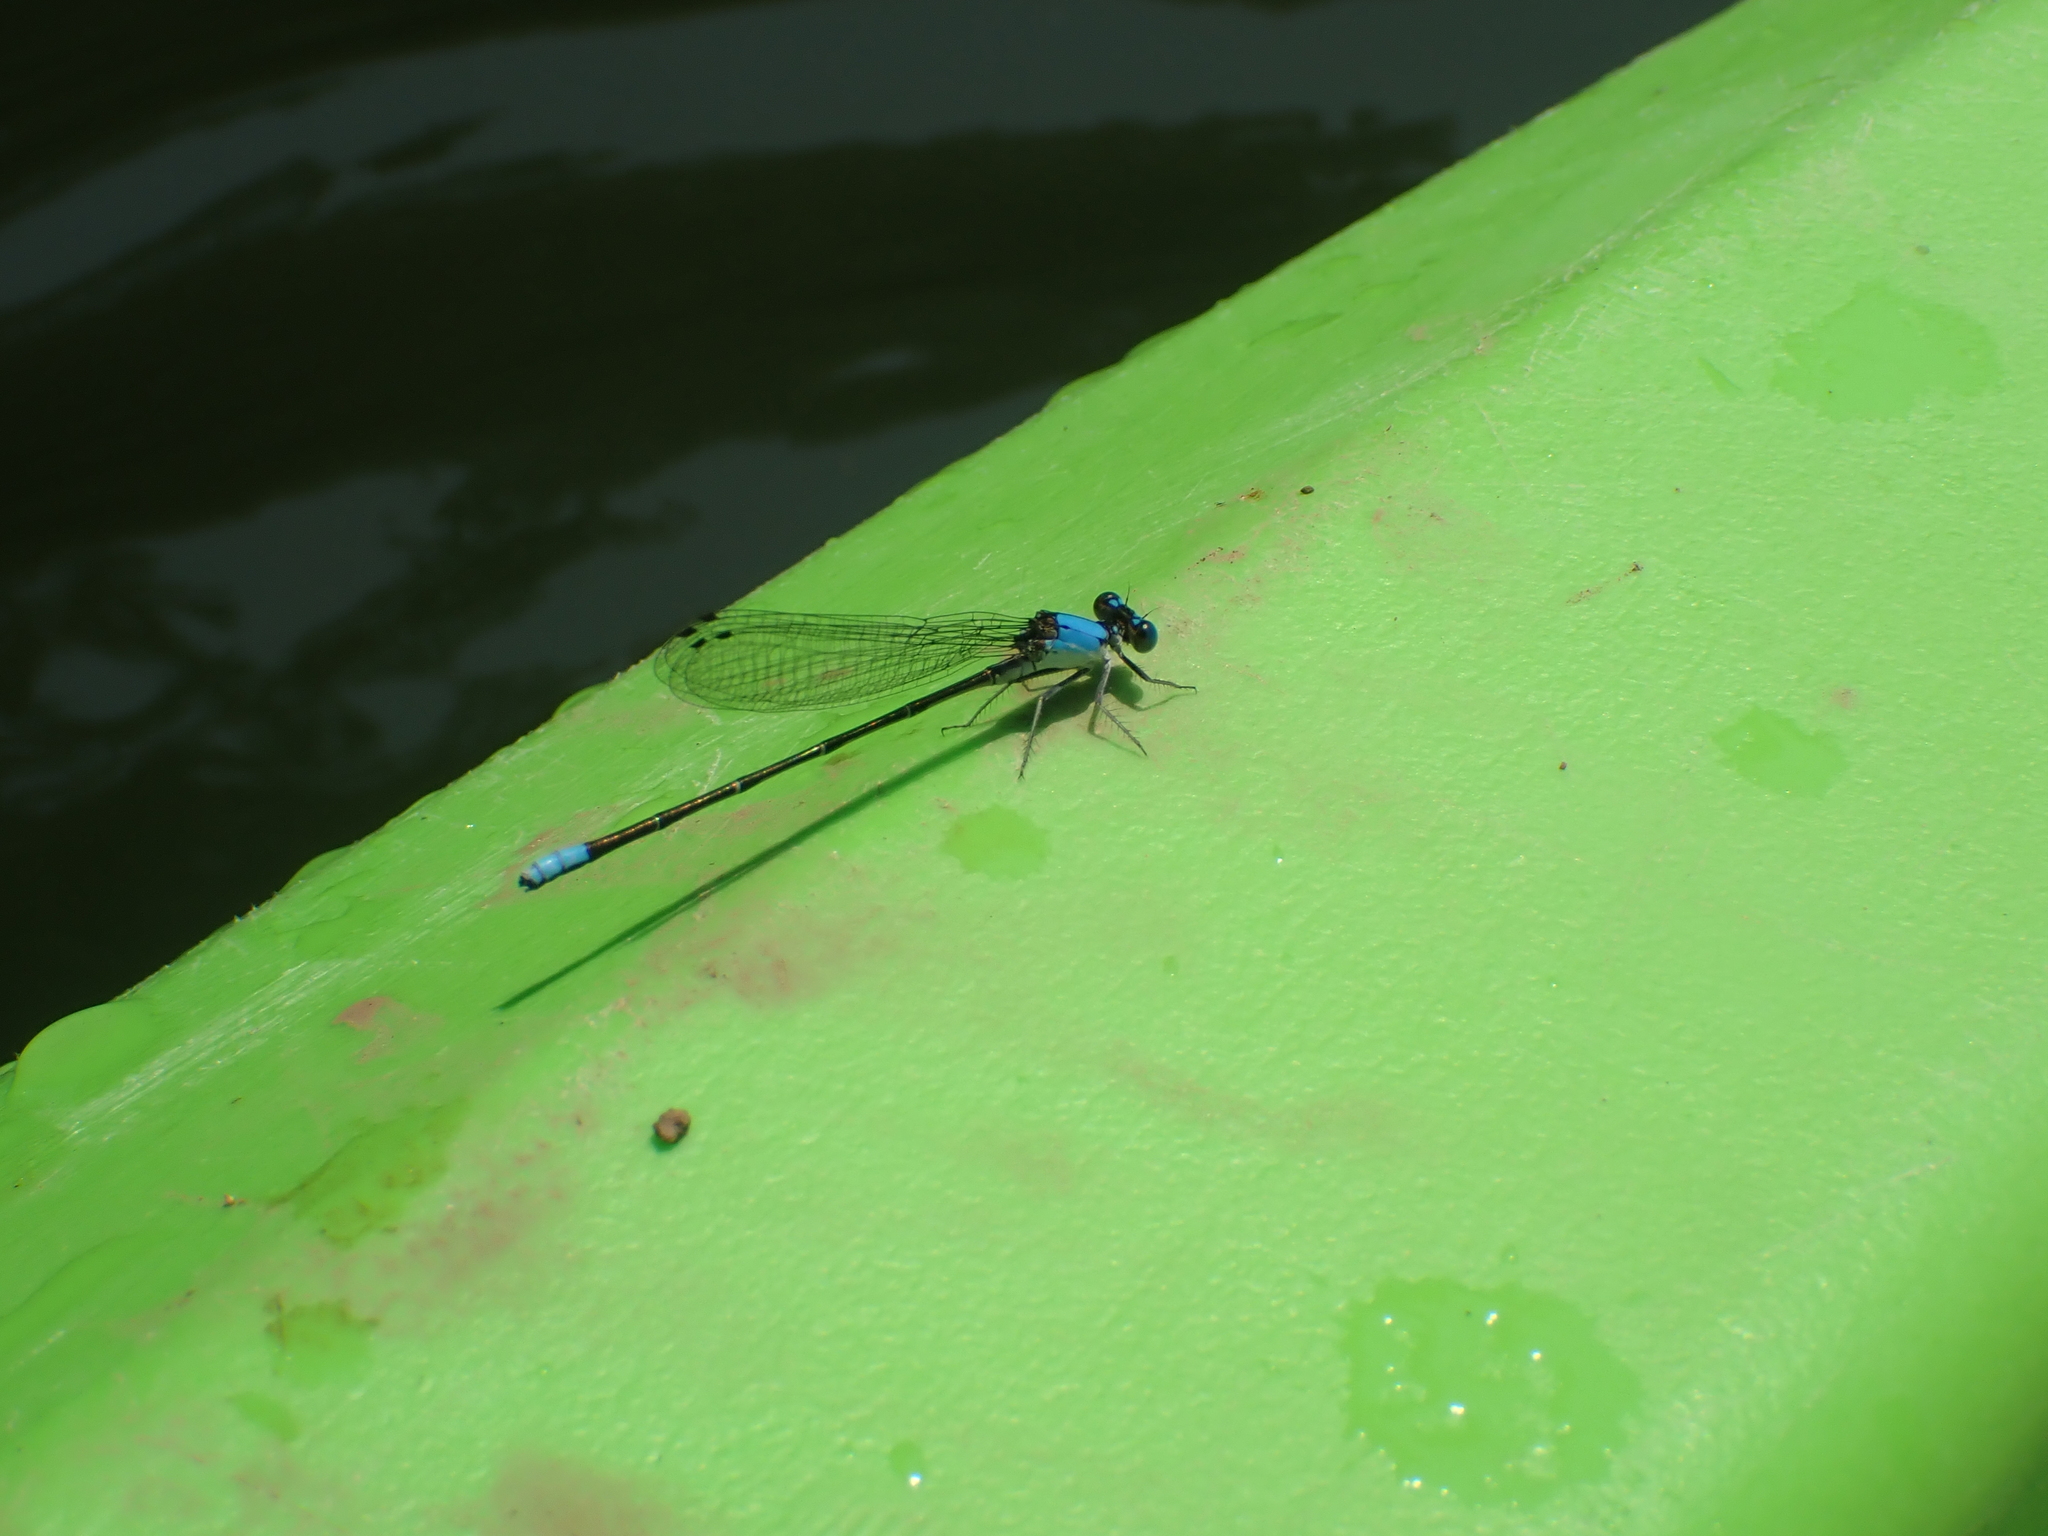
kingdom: Animalia
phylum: Arthropoda
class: Insecta
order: Odonata
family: Coenagrionidae
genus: Argia
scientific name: Argia apicalis
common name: Blue-fronted dancer
